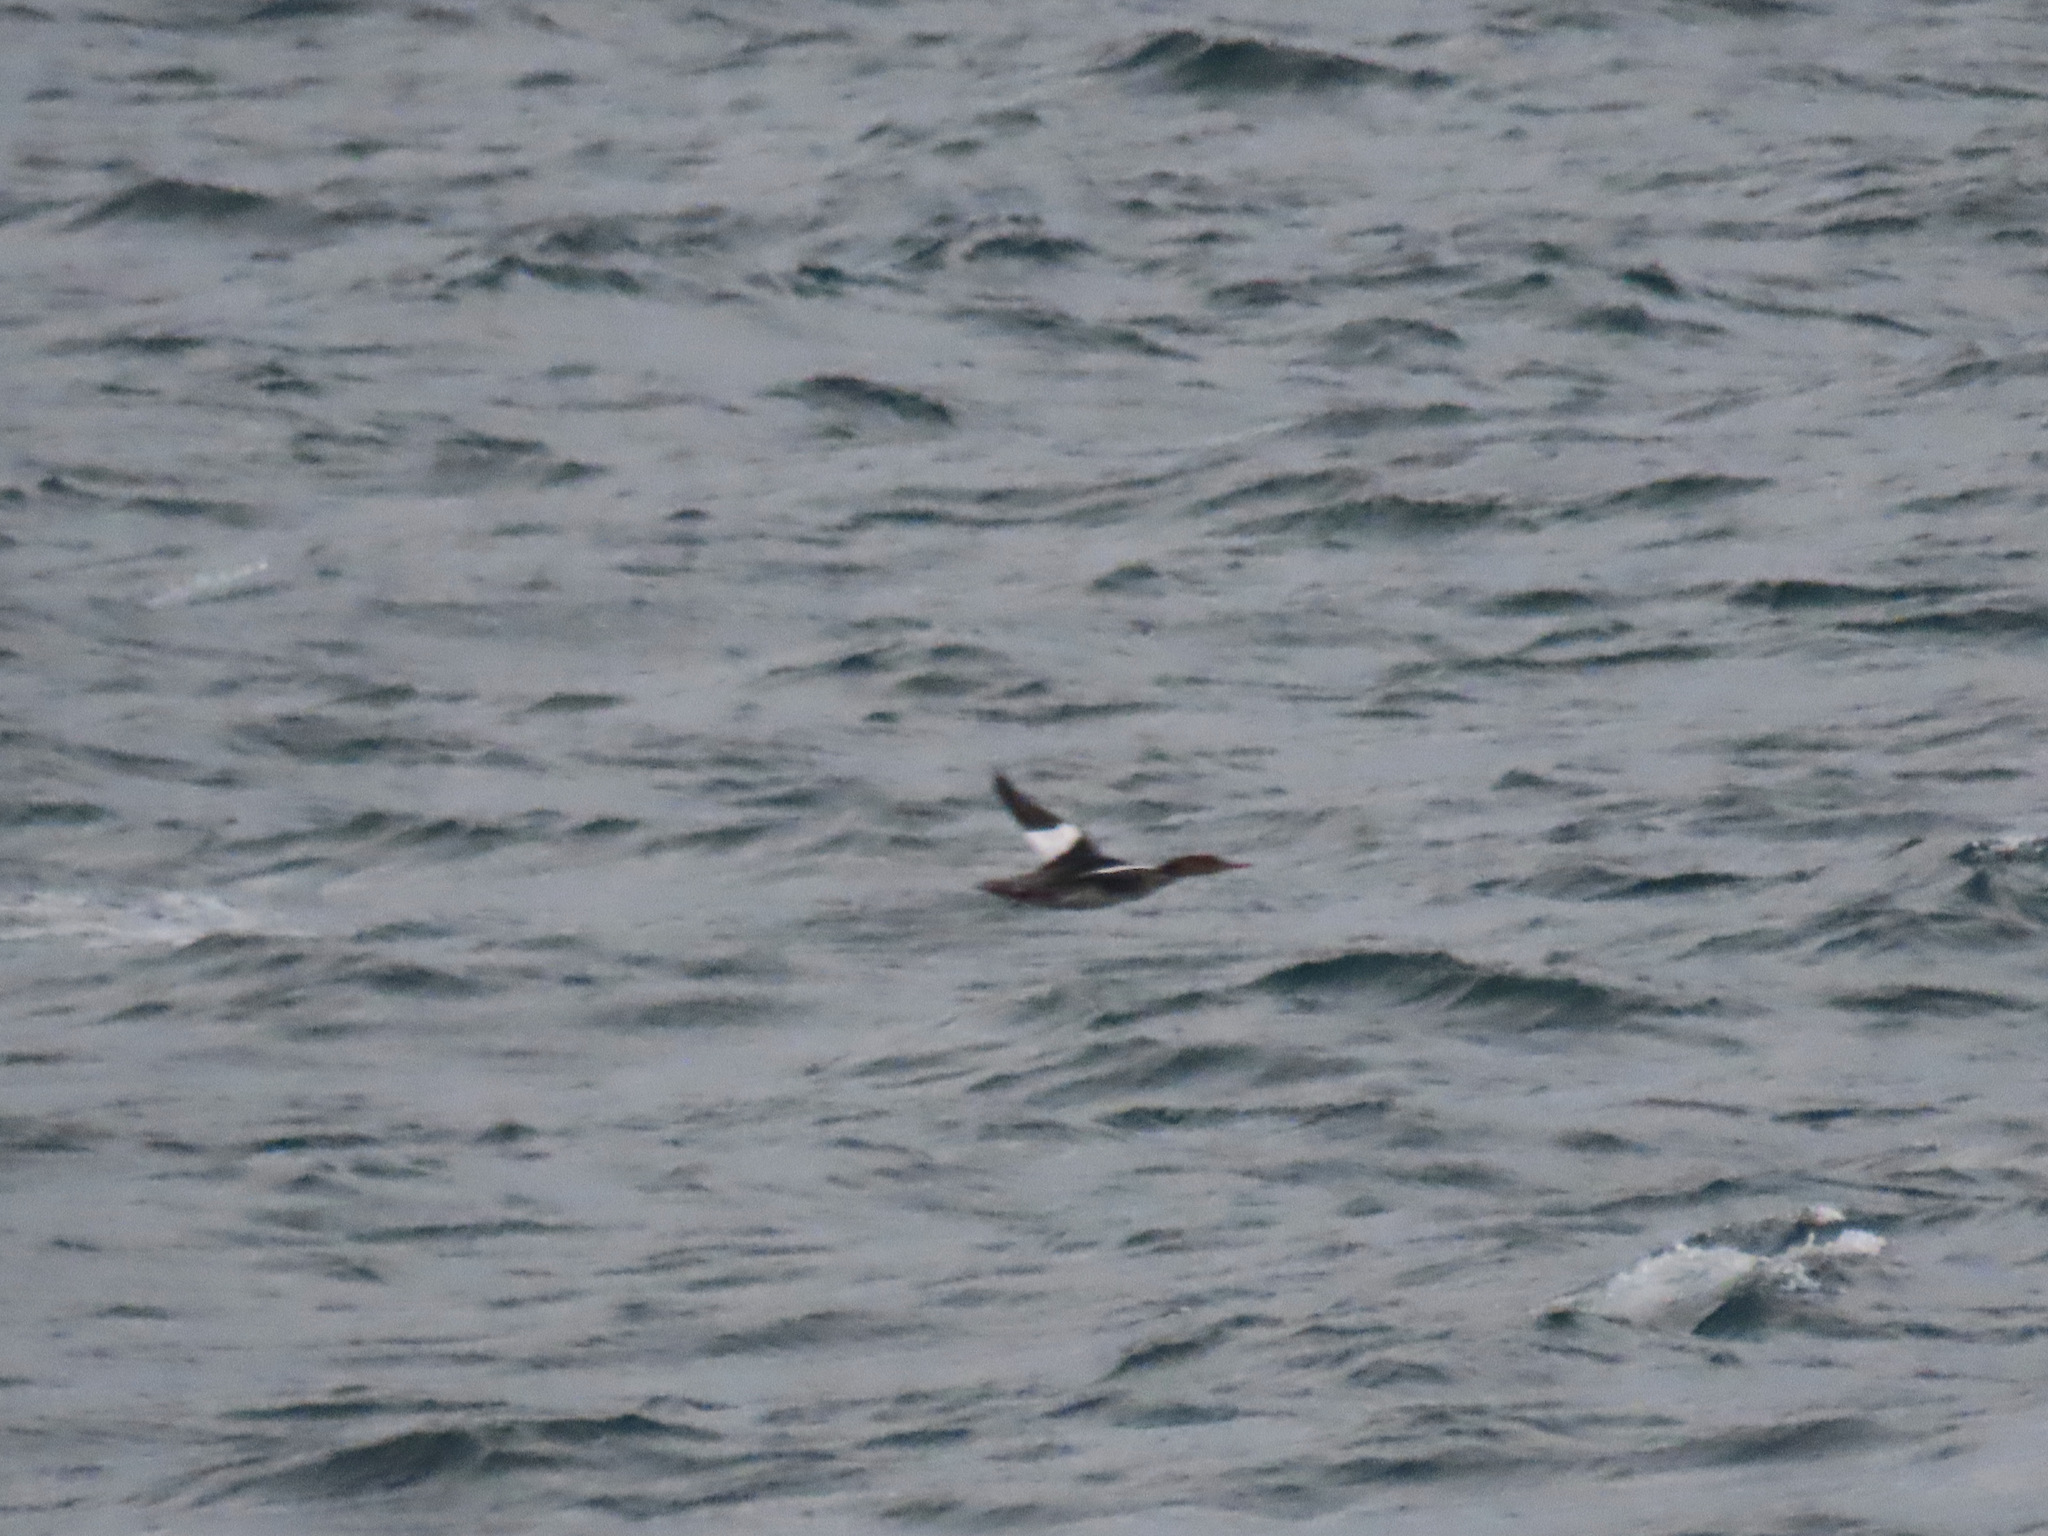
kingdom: Animalia
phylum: Chordata
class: Aves
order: Anseriformes
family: Anatidae
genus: Mergus
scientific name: Mergus serrator
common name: Red-breasted merganser
